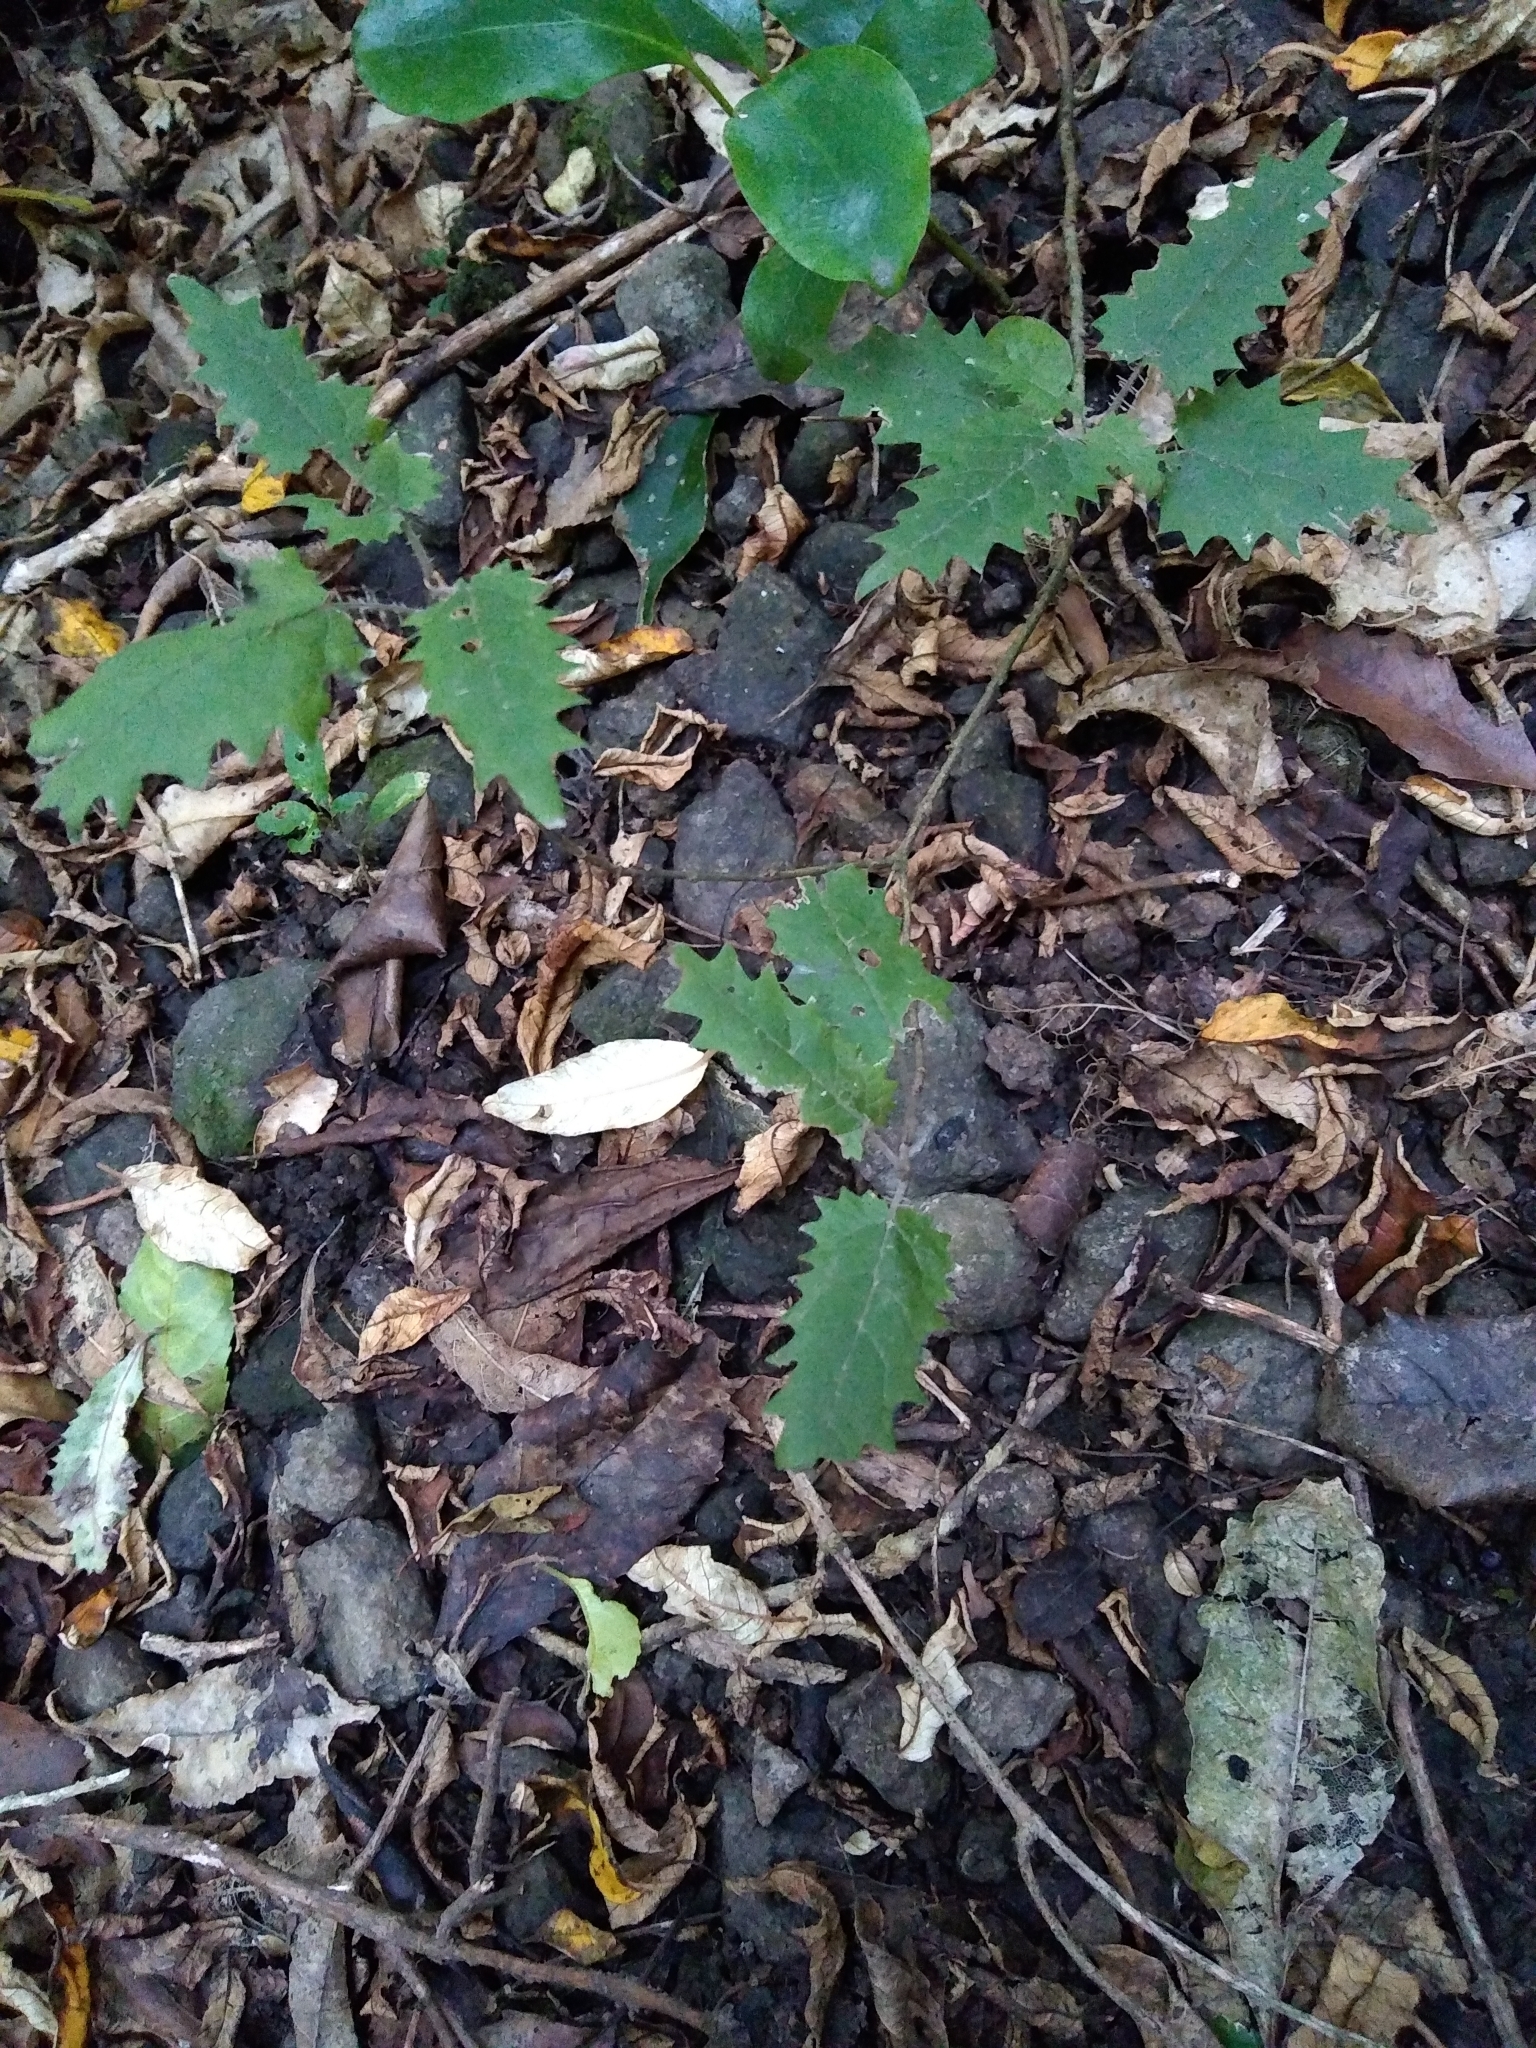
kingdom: Plantae
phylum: Tracheophyta
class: Magnoliopsida
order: Rosales
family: Urticaceae
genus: Urtica
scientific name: Urtica ferox
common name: Tree nettle
